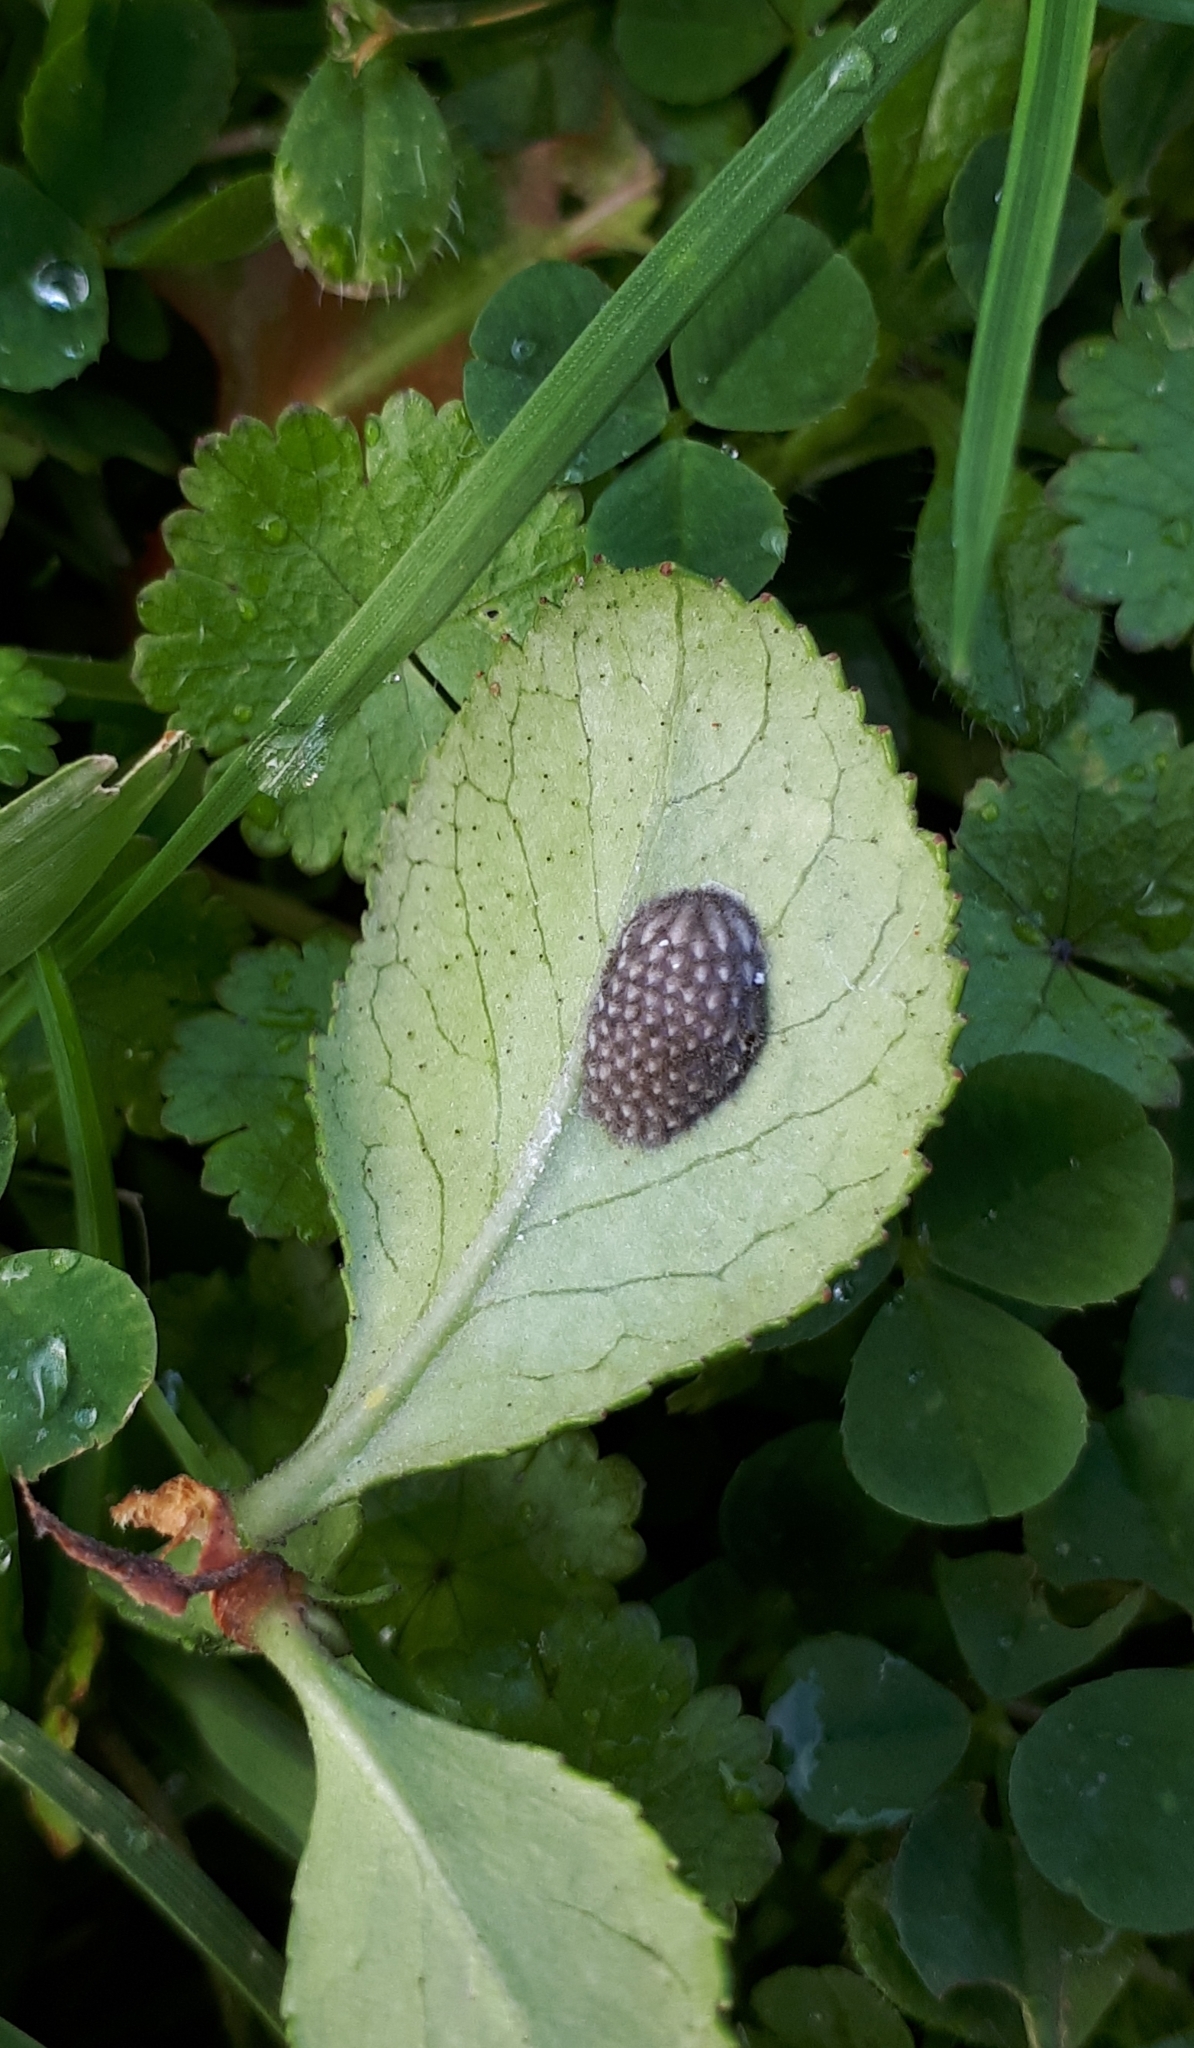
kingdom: Animalia
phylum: Arthropoda
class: Insecta
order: Hemiptera
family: Flatidae
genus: Siphanta
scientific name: Siphanta acuta
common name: Torpedo bug
